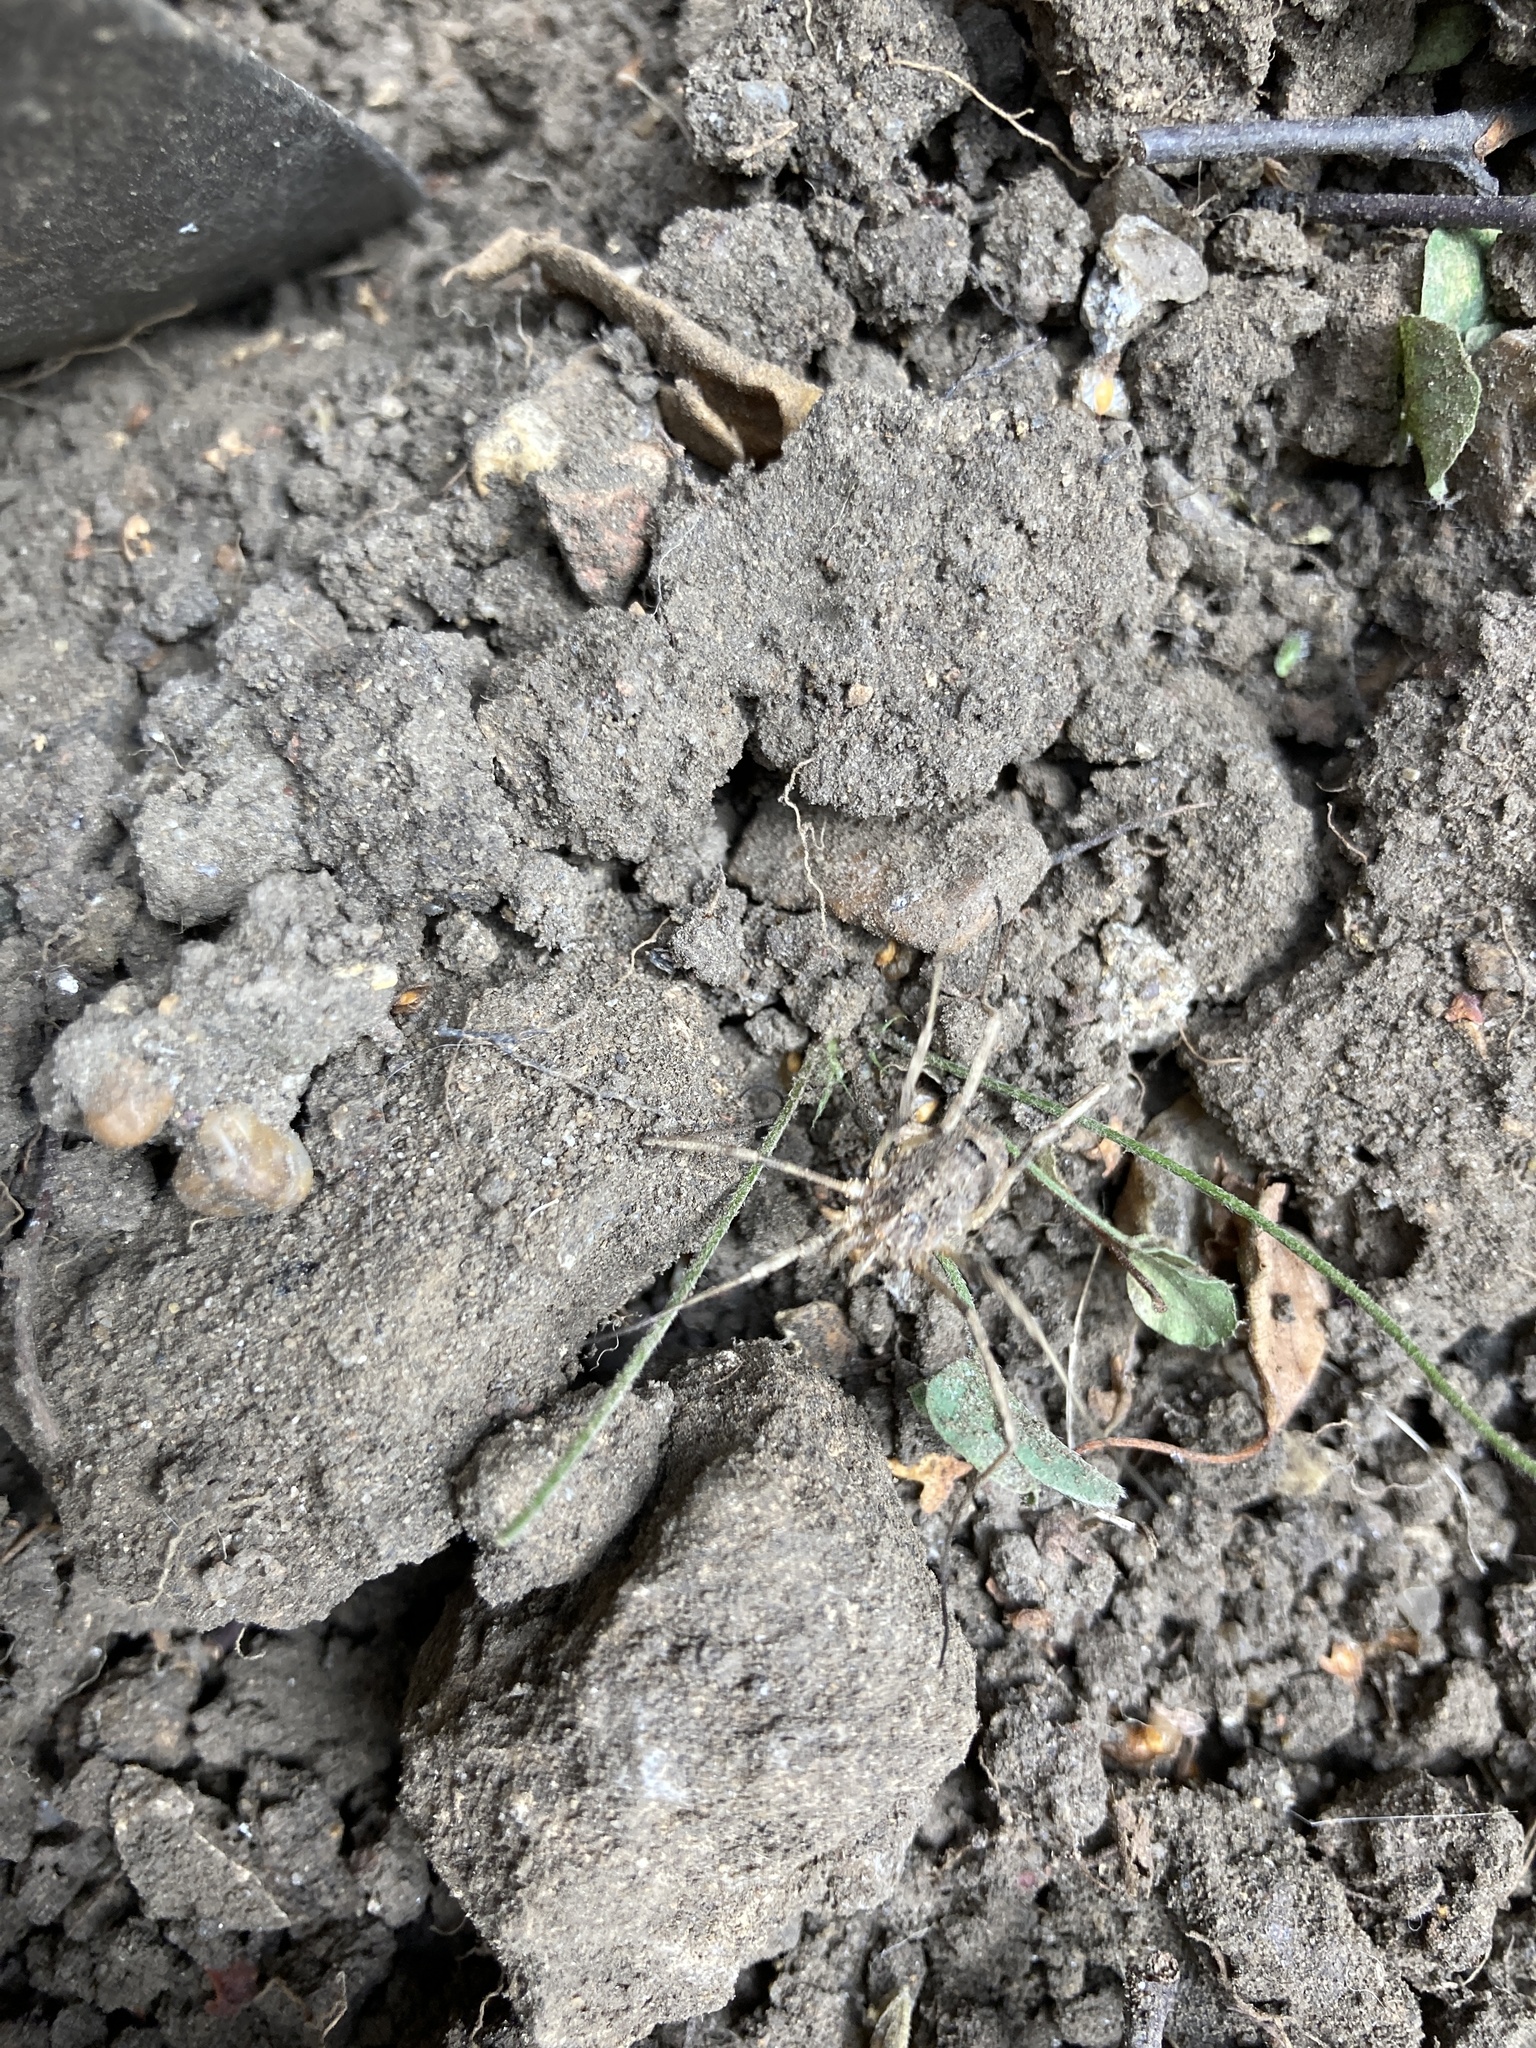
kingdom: Animalia
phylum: Arthropoda
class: Arachnida
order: Opiliones
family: Phalangiidae
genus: Odiellus
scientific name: Odiellus spinosus
